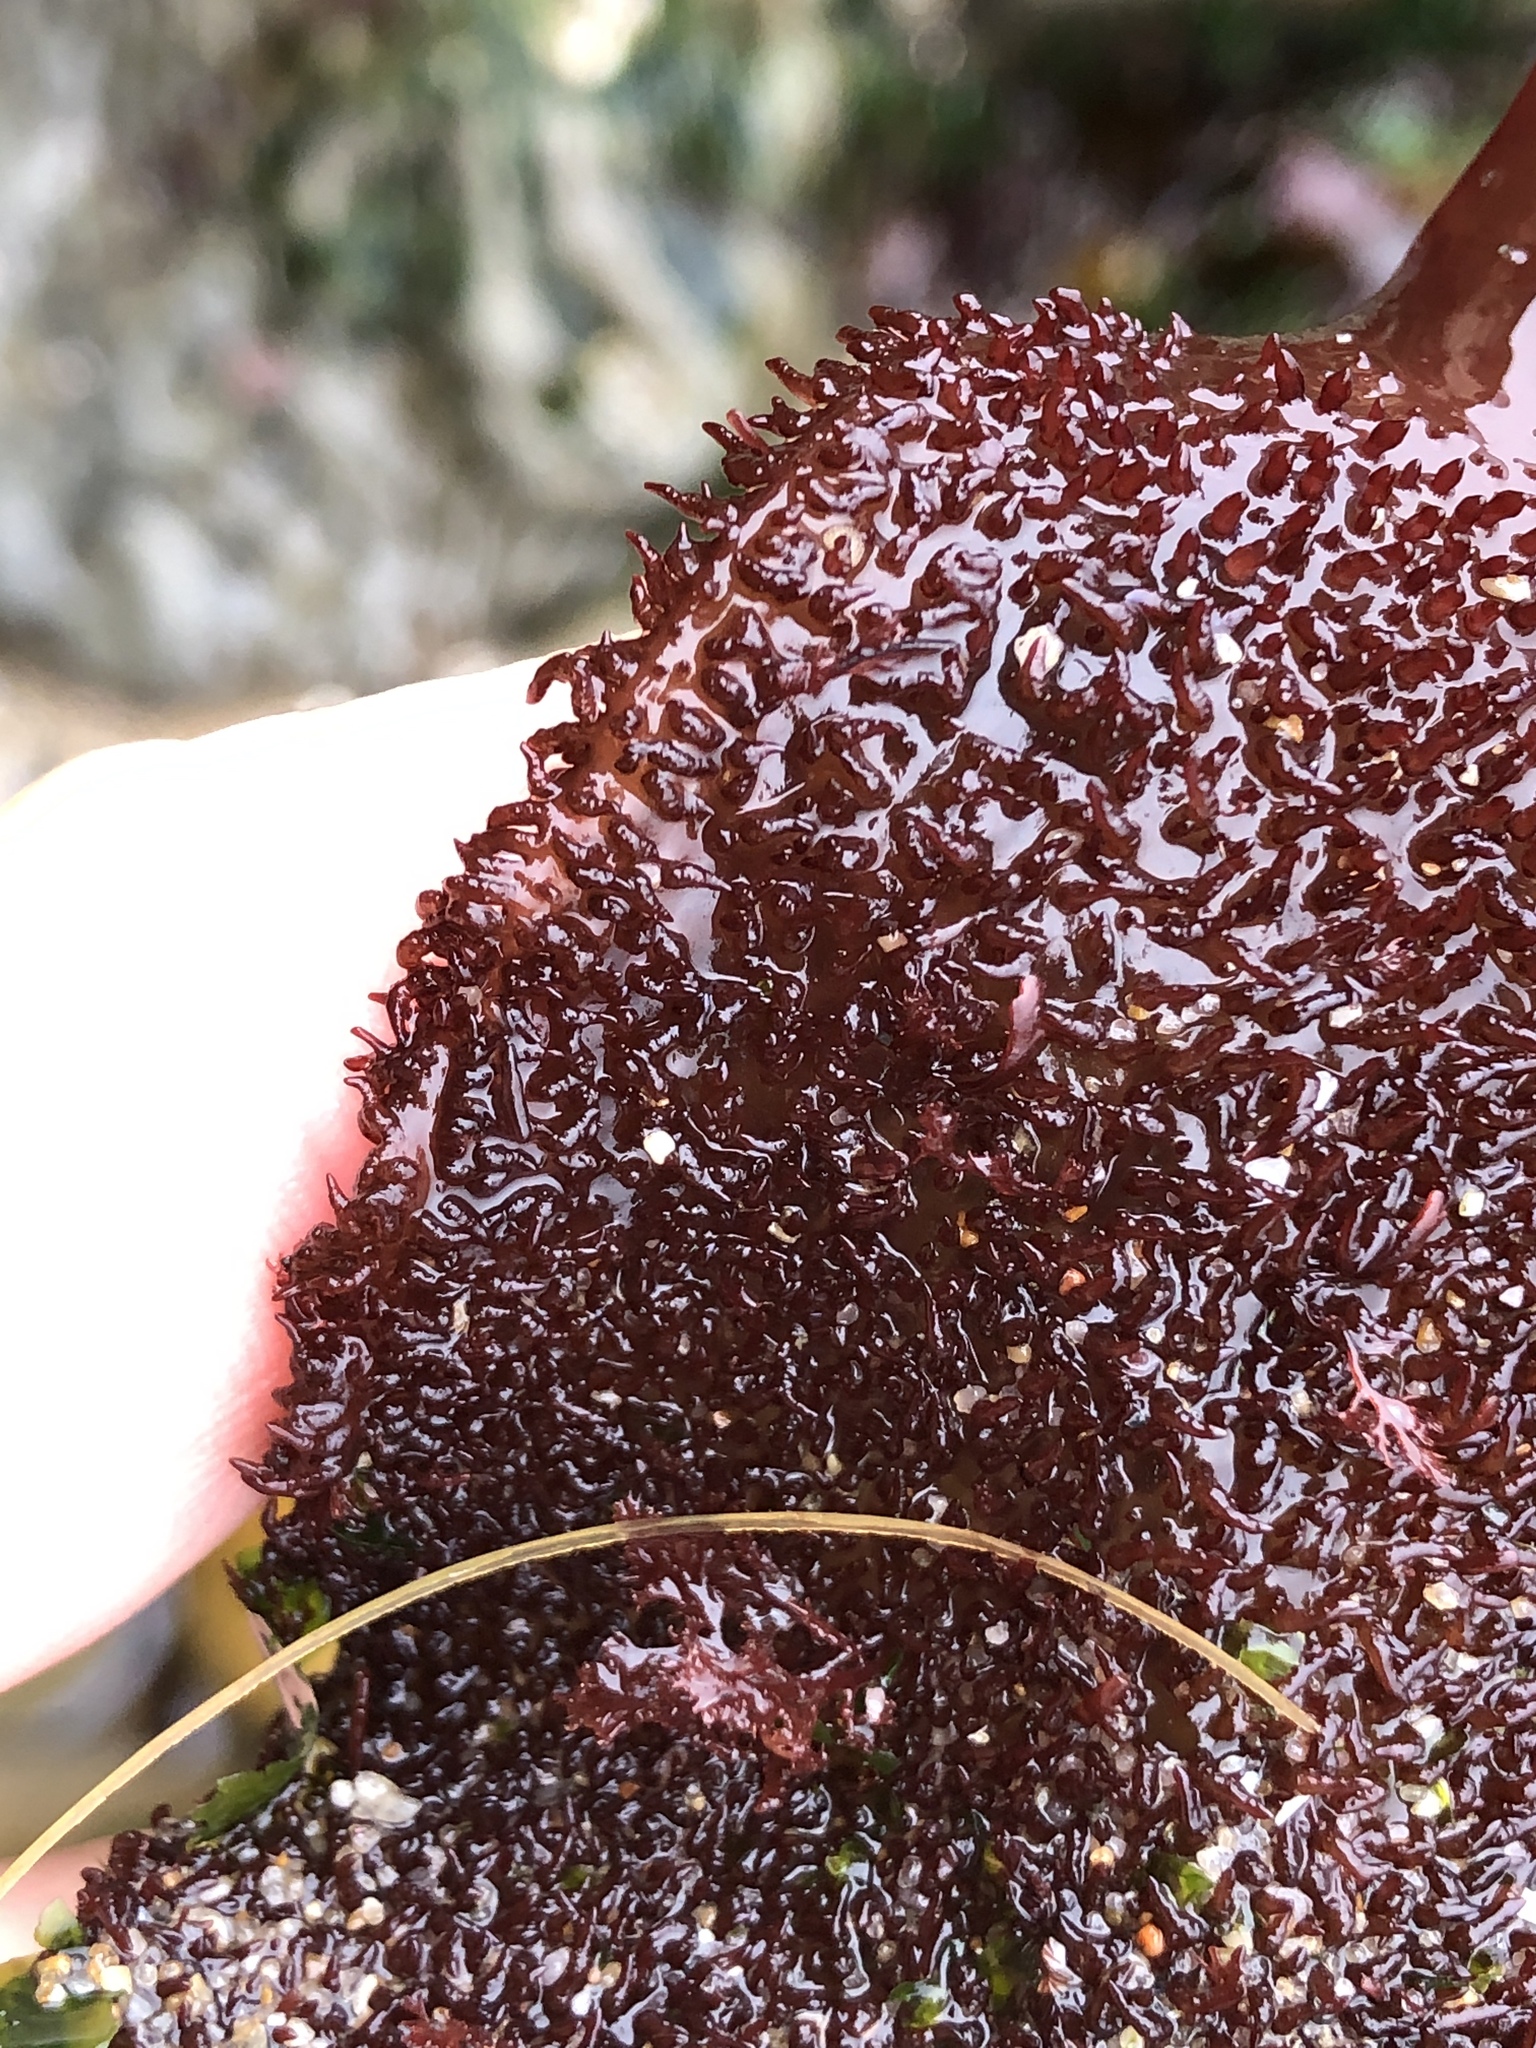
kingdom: Plantae
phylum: Rhodophyta
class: Florideophyceae
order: Gigartinales
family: Gigartinaceae
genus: Chondracanthus
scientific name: Chondracanthus exasperatus
